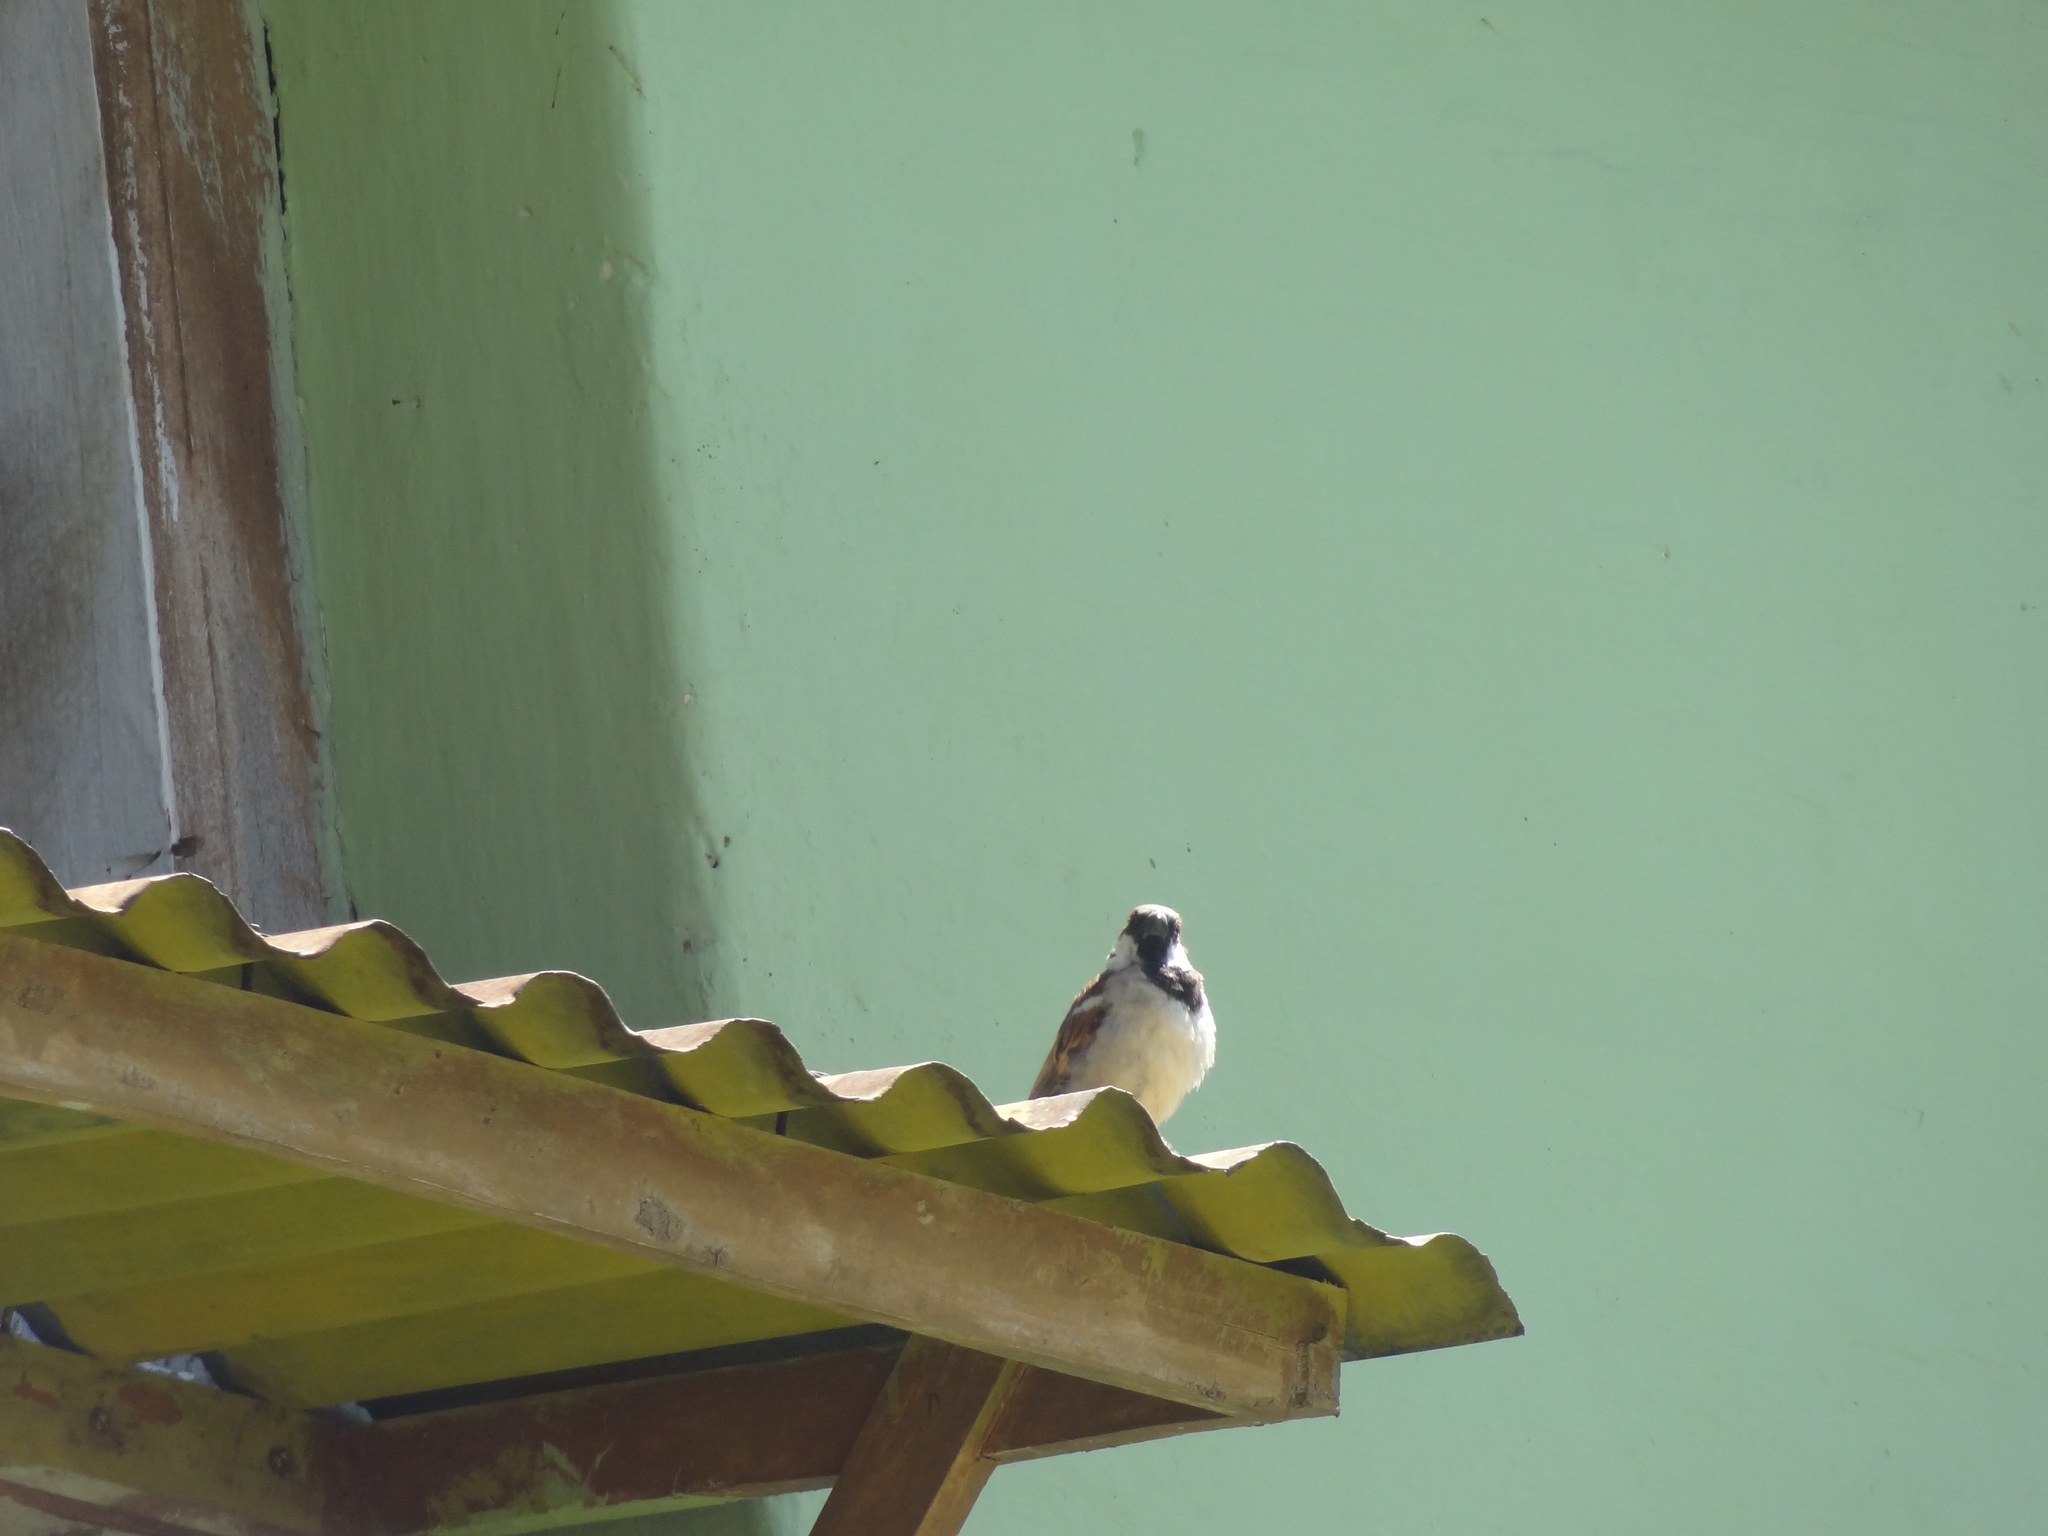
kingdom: Animalia
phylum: Chordata
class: Aves
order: Passeriformes
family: Passeridae
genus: Passer
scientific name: Passer domesticus
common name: House sparrow
